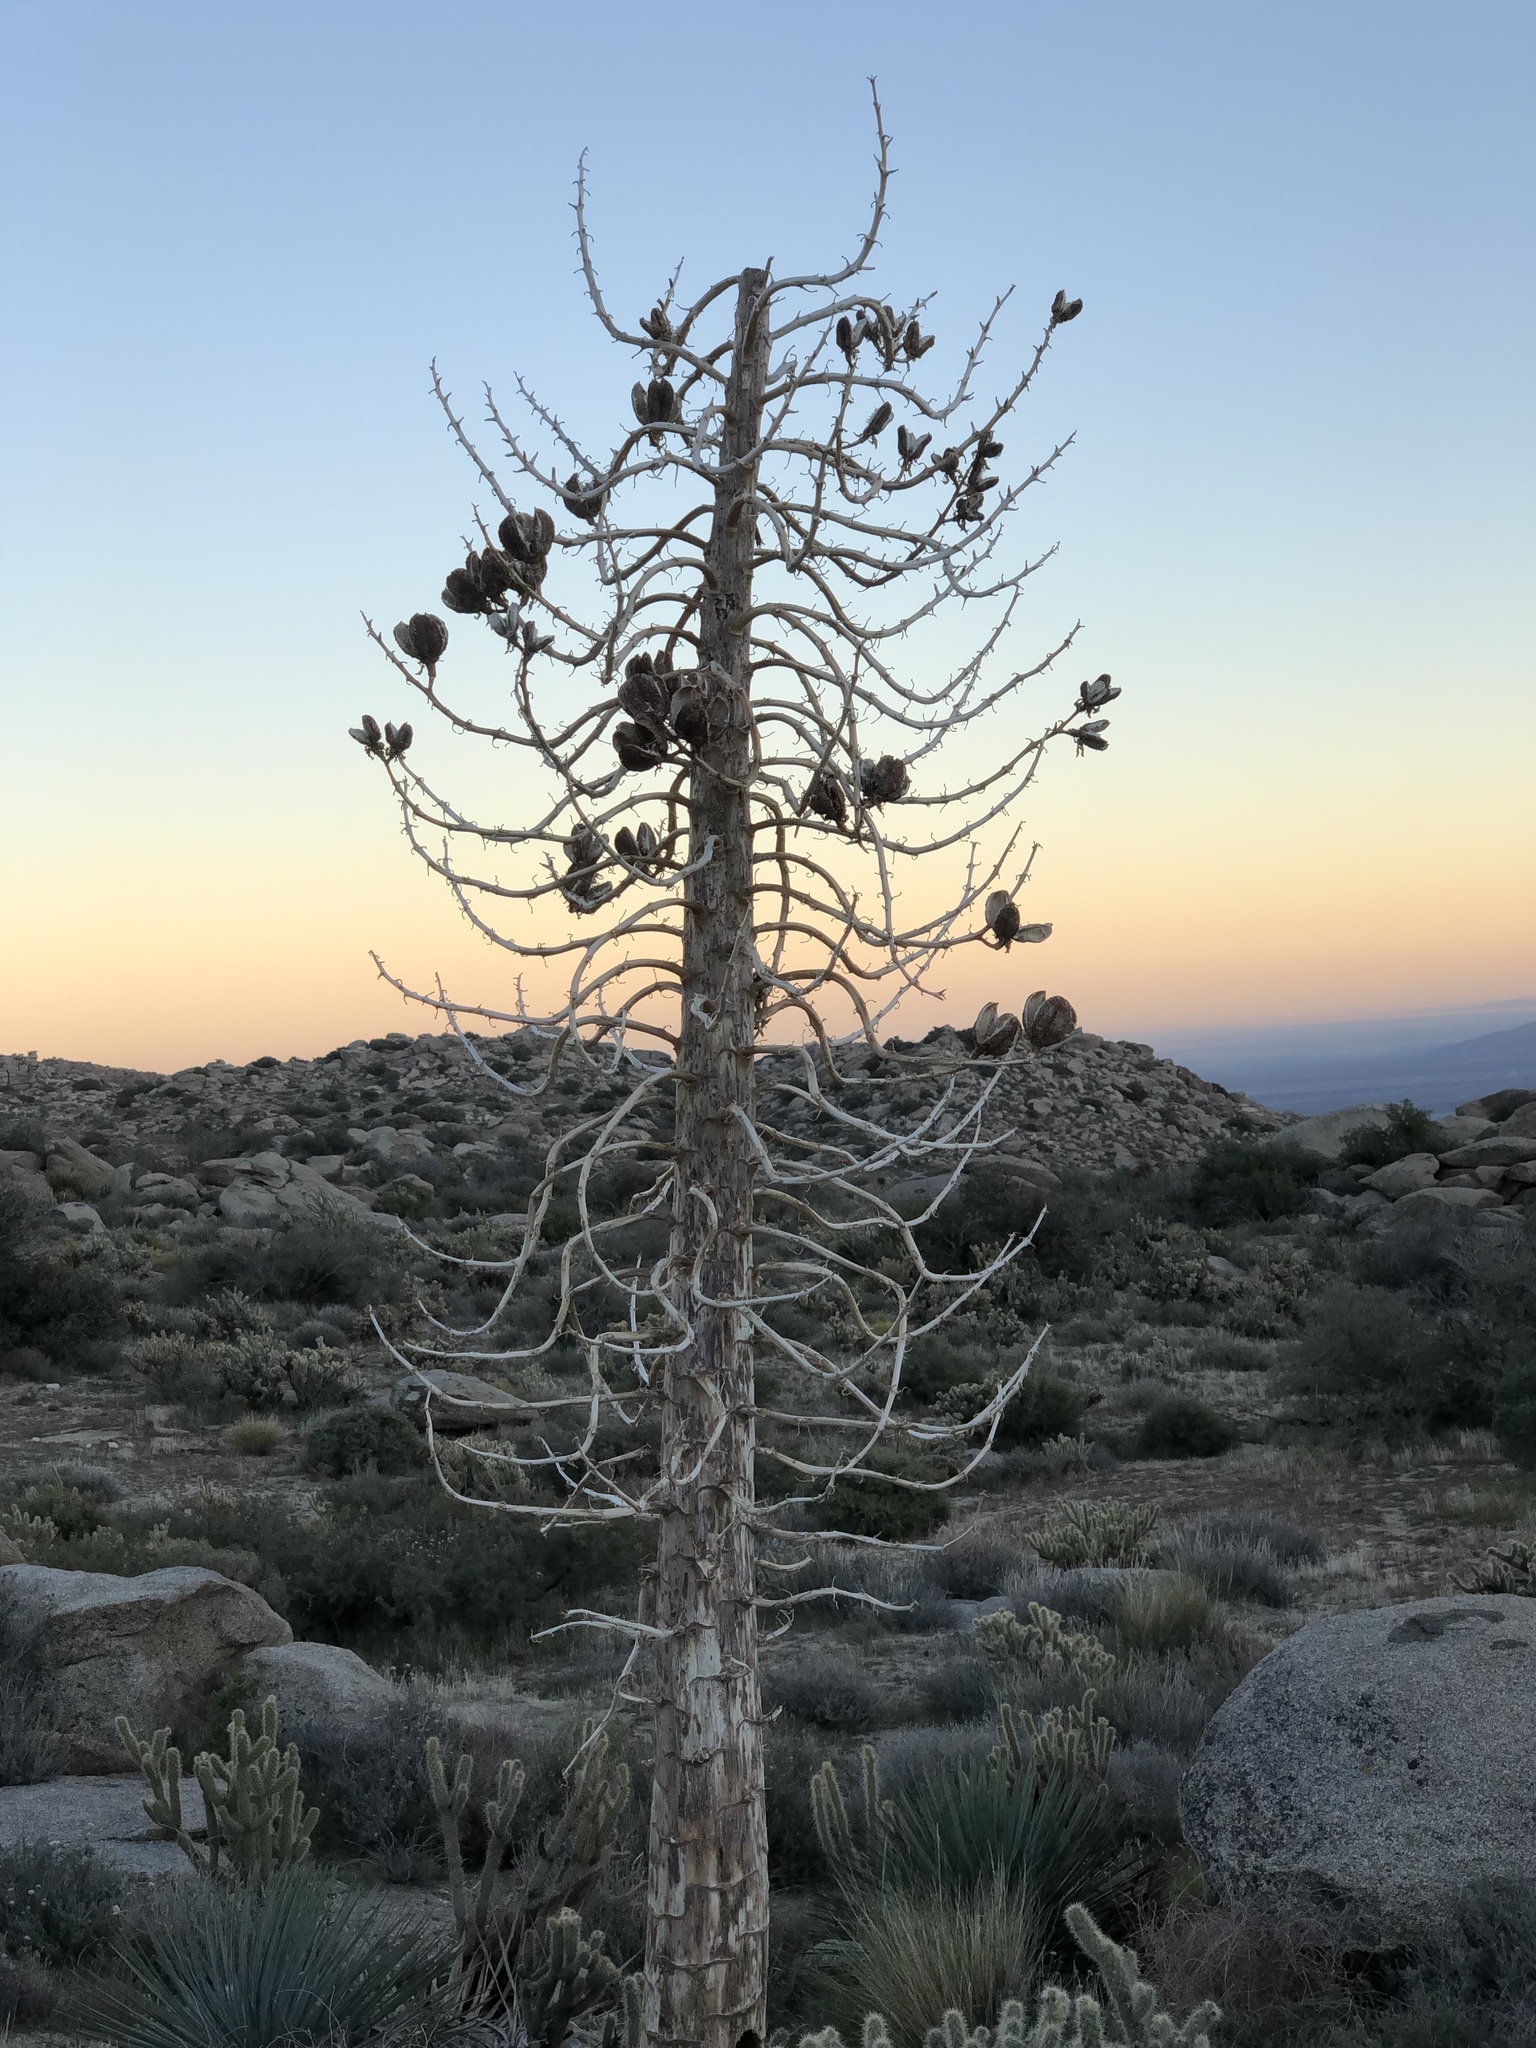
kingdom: Plantae
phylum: Tracheophyta
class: Liliopsida
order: Asparagales
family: Asparagaceae
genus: Hesperoyucca
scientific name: Hesperoyucca whipplei
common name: Our lord's-candle
